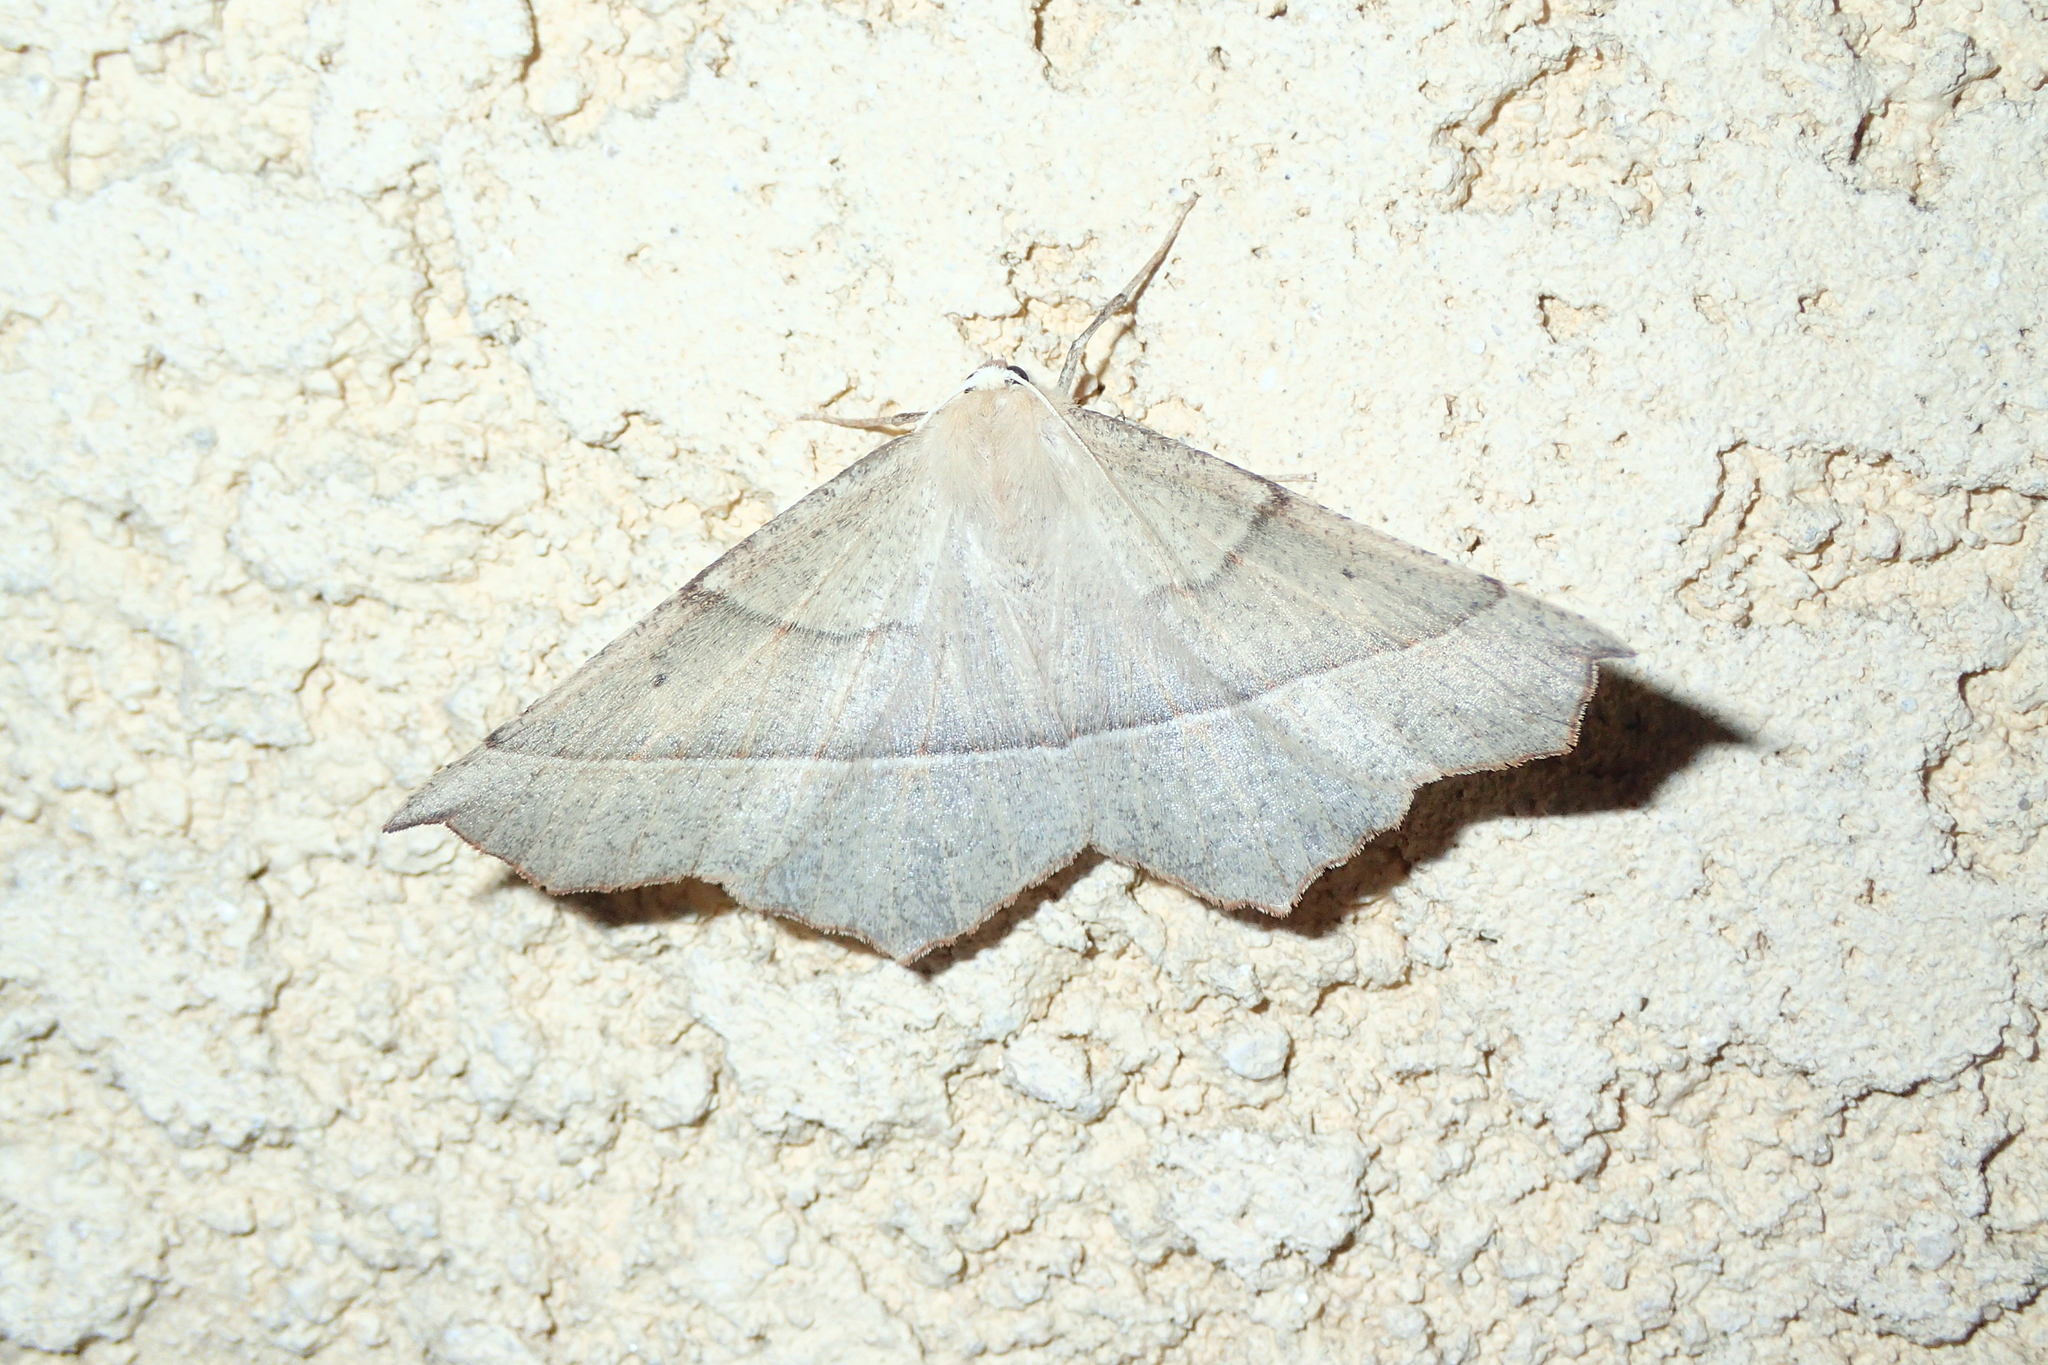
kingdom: Animalia
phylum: Arthropoda
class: Insecta
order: Lepidoptera
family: Geometridae
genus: Gerinia
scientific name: Gerinia honoraria
